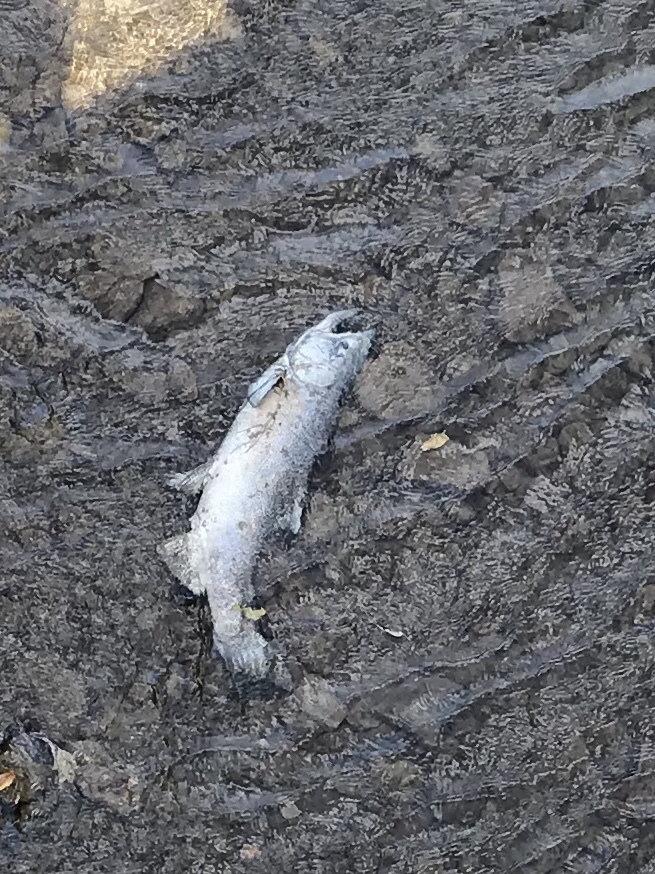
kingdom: Animalia
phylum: Chordata
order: Salmoniformes
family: Salmonidae
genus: Oncorhynchus
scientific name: Oncorhynchus tshawytscha
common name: Chinook salmon
